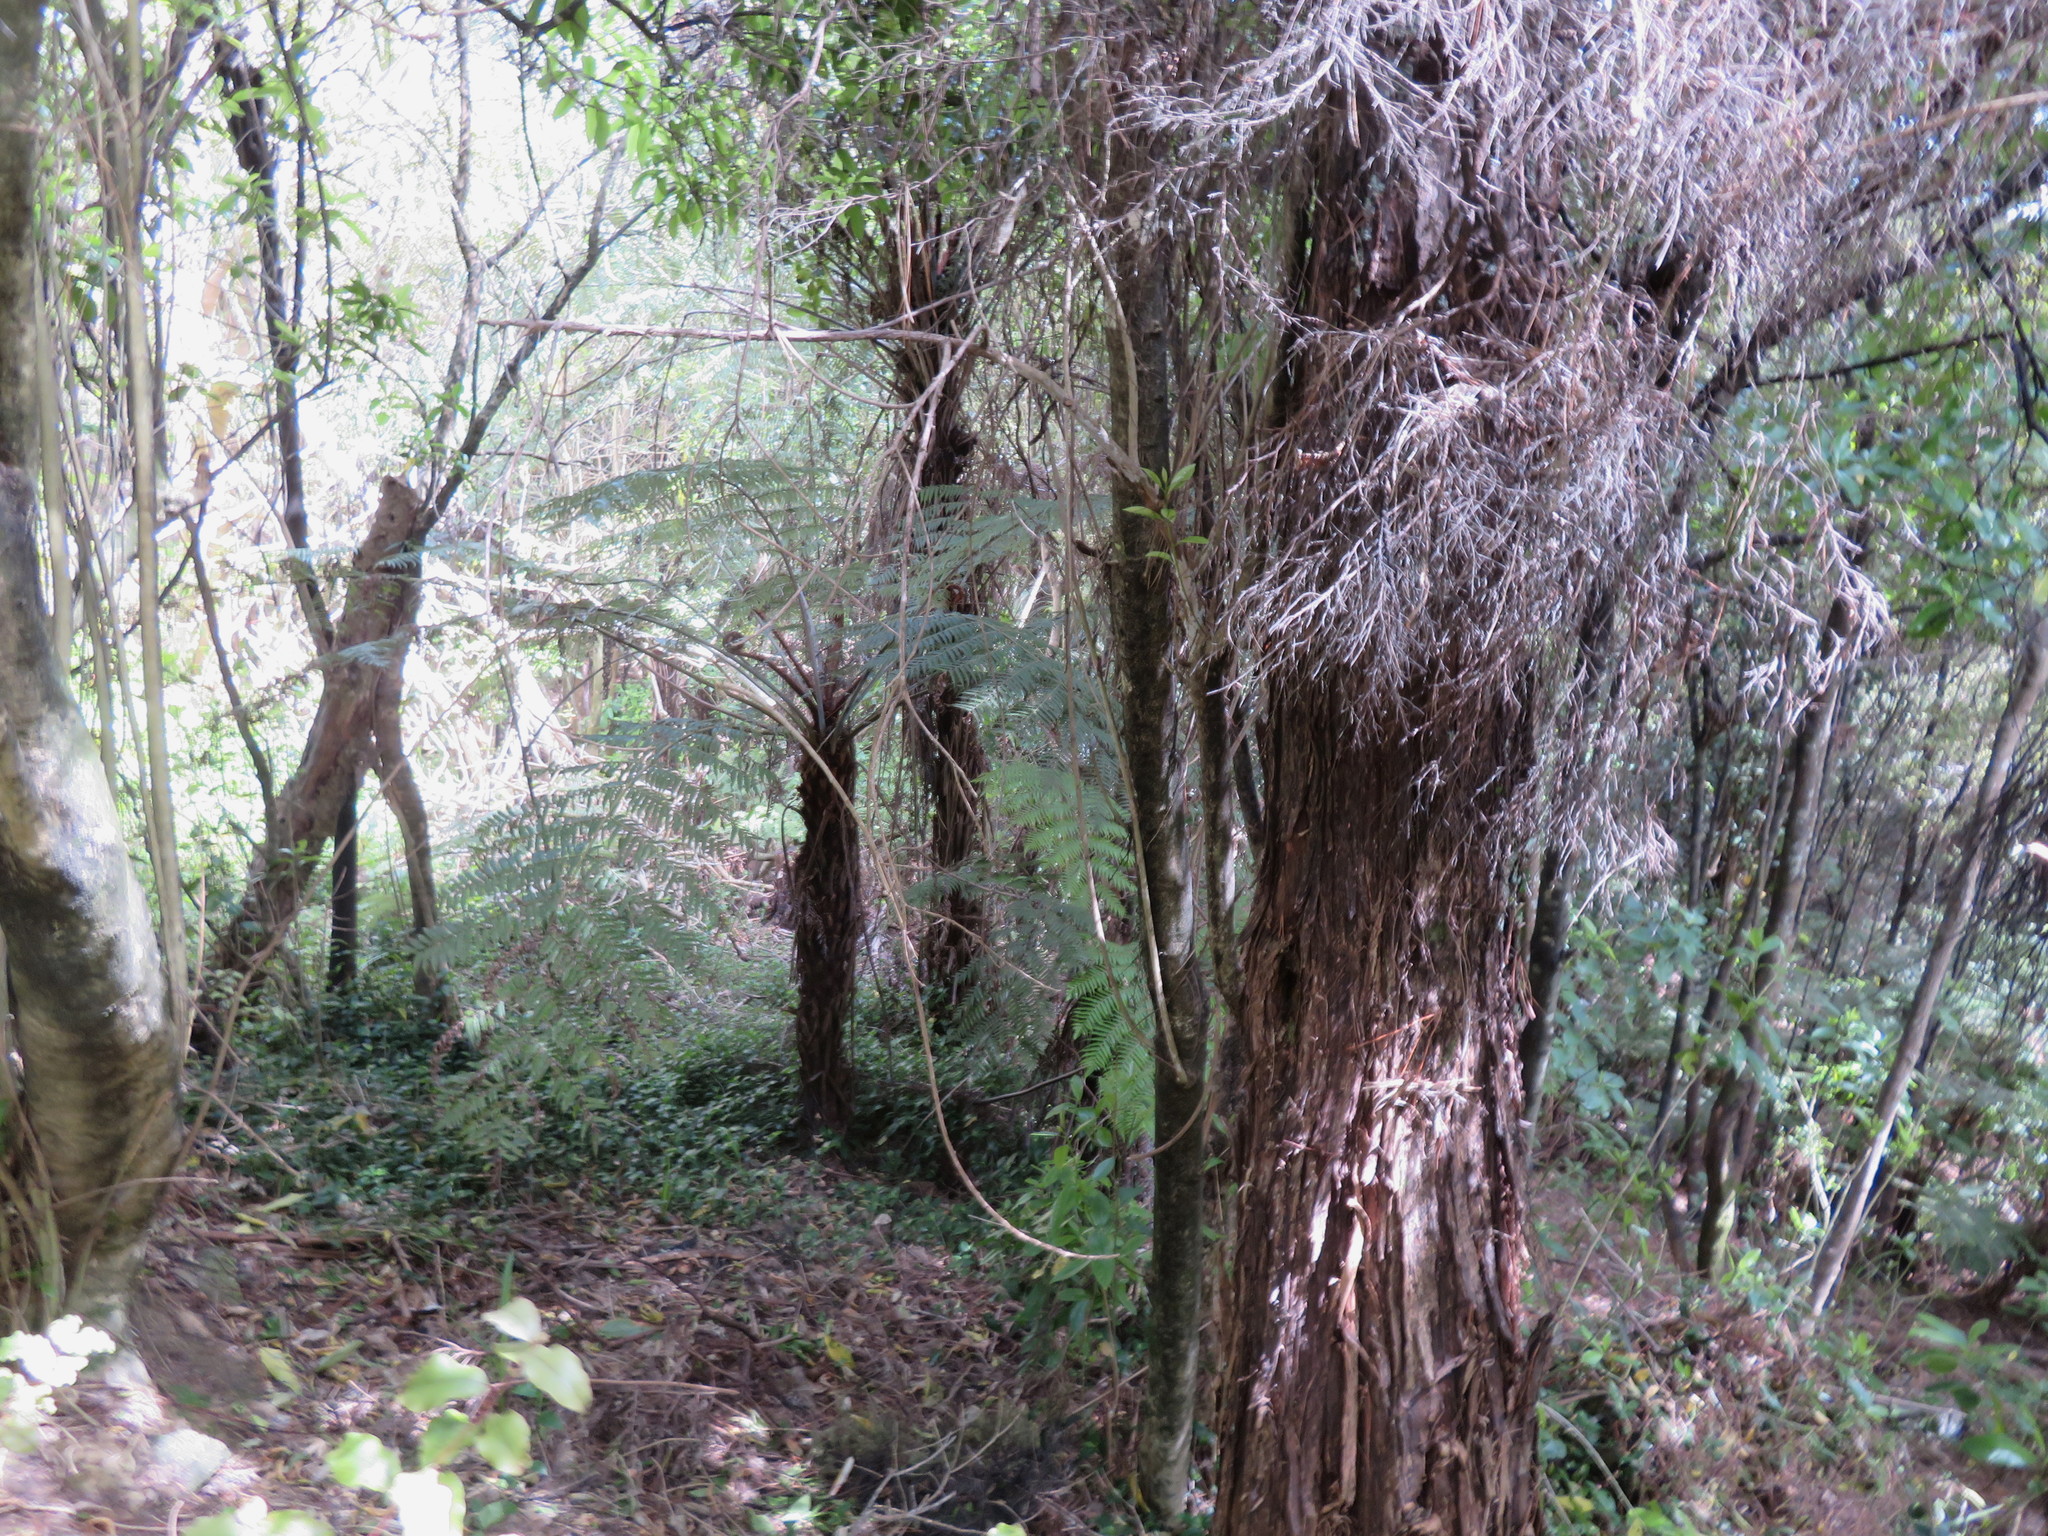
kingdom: Plantae
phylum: Tracheophyta
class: Liliopsida
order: Commelinales
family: Commelinaceae
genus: Tradescantia
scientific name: Tradescantia fluminensis
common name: Wandering-jew
